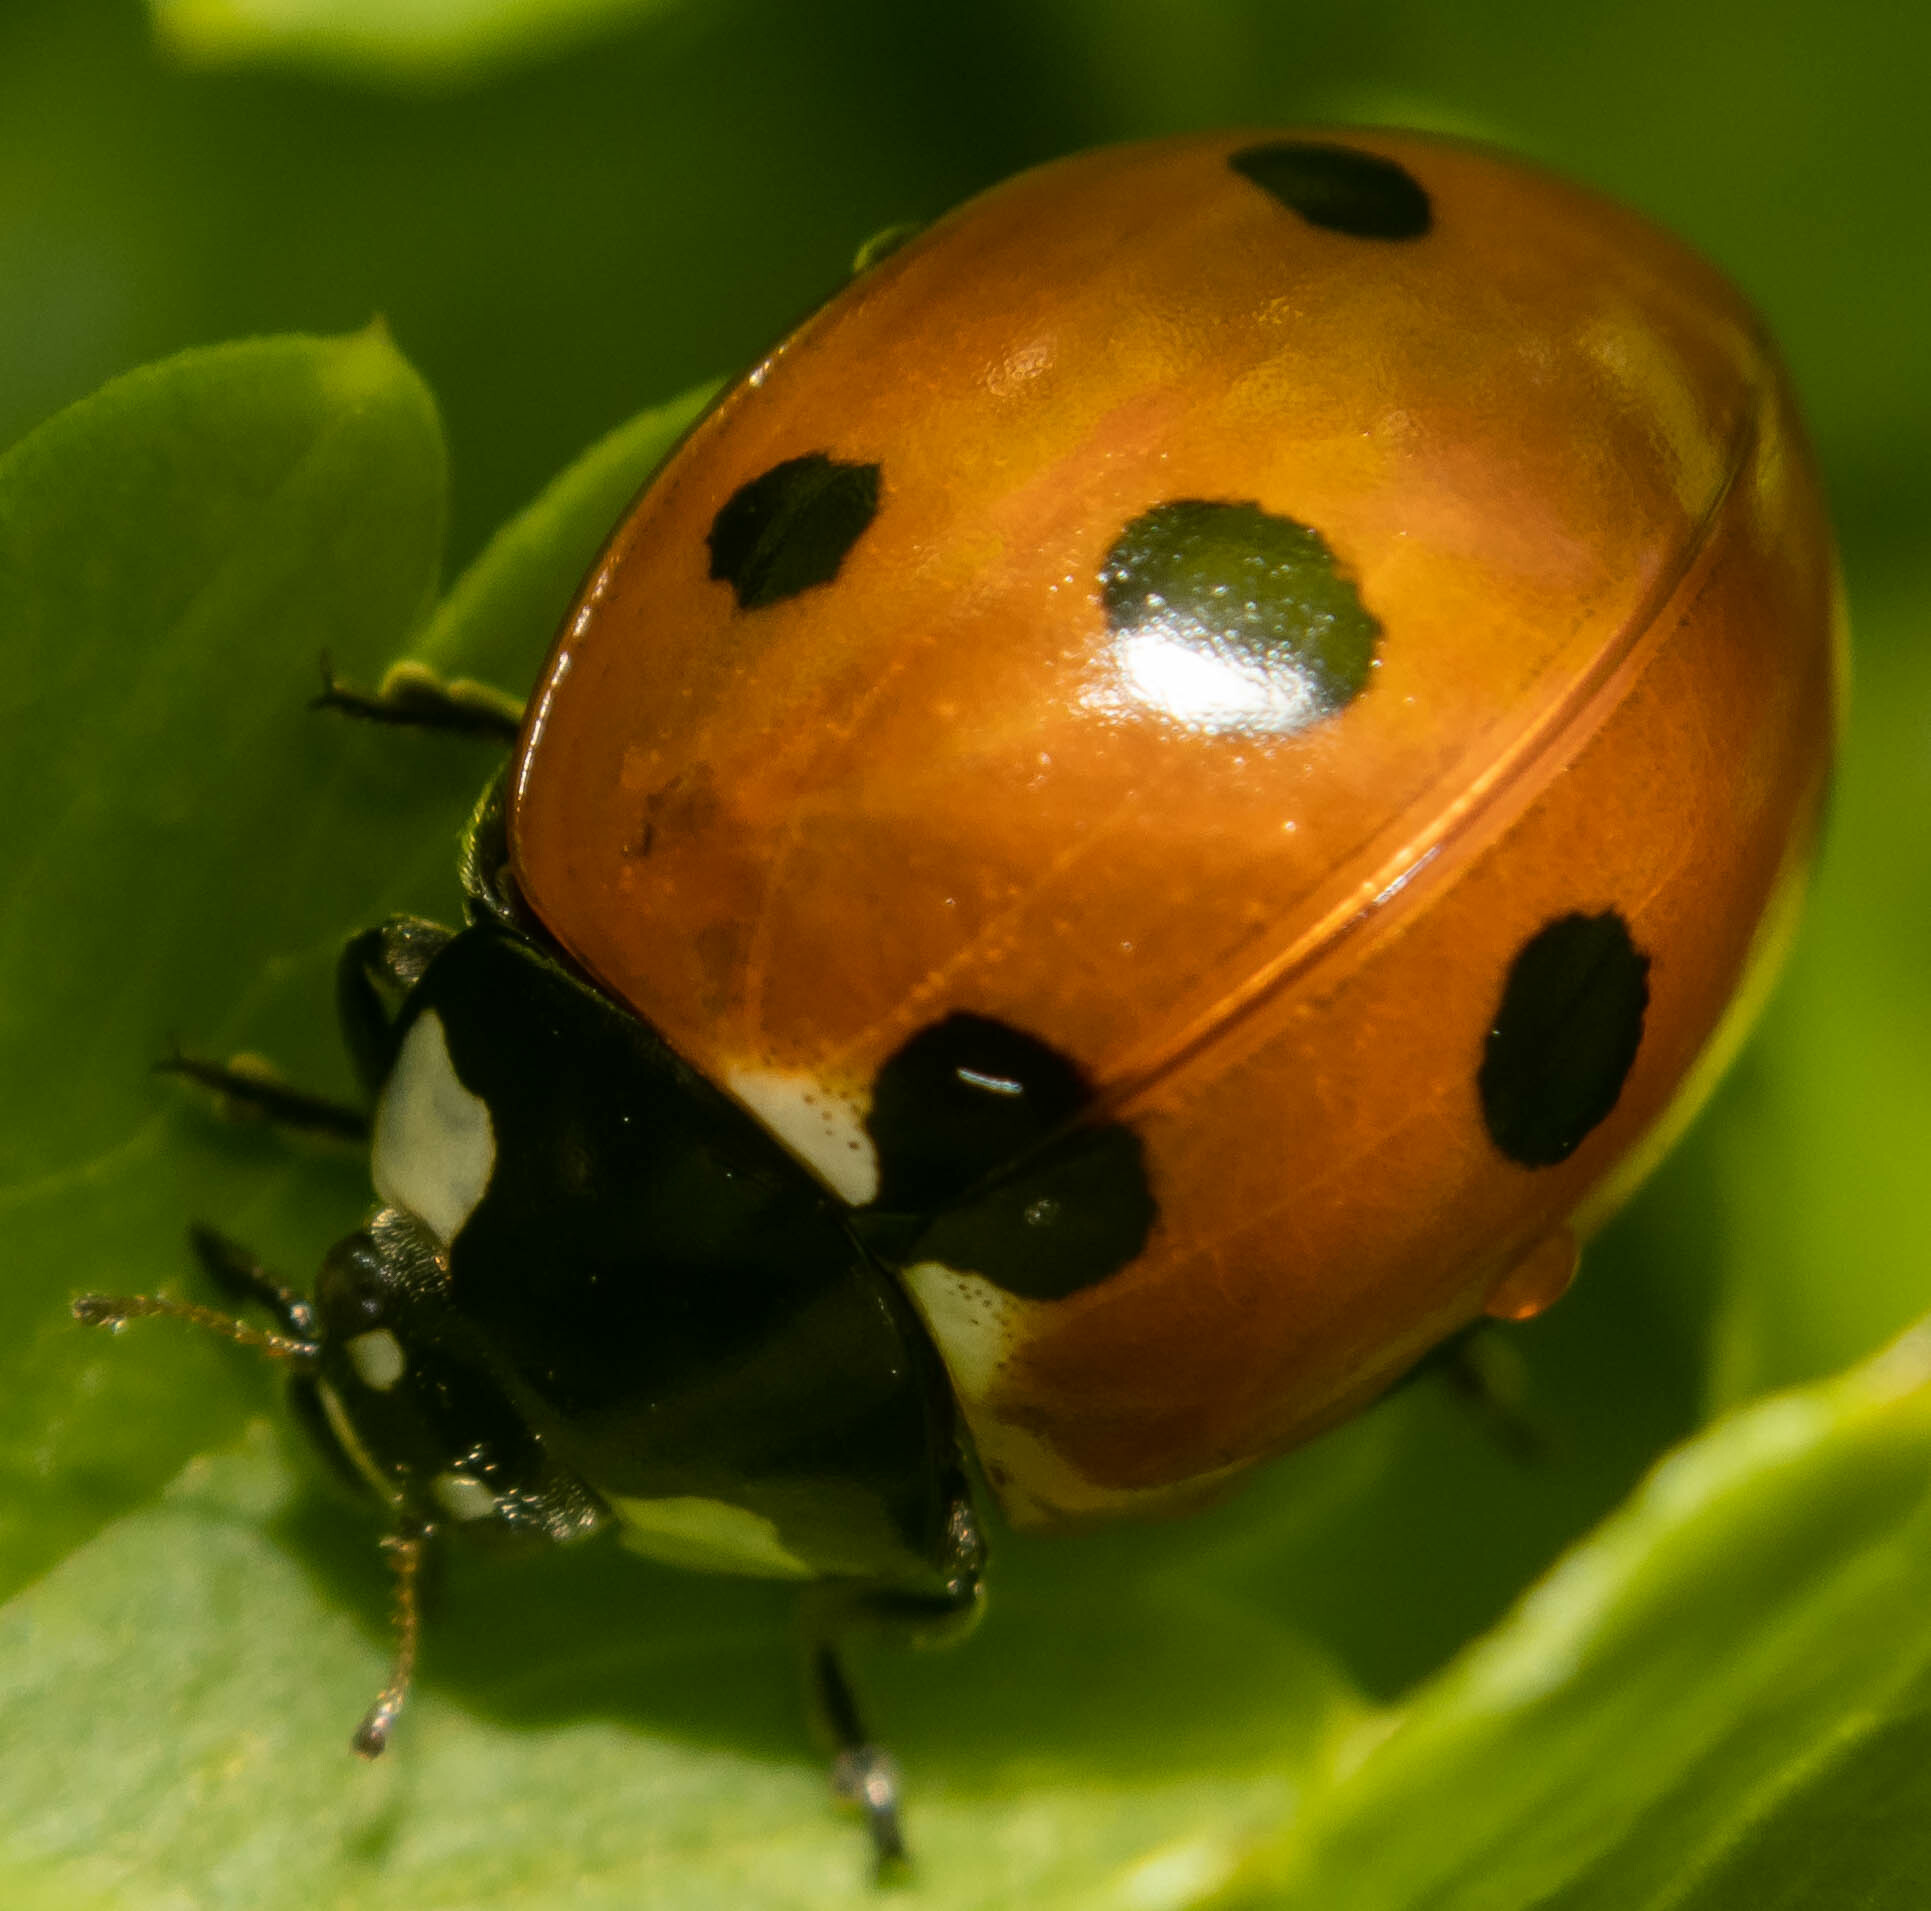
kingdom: Animalia
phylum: Arthropoda
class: Insecta
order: Coleoptera
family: Coccinellidae
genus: Coccinella
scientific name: Coccinella septempunctata
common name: Sevenspotted lady beetle
